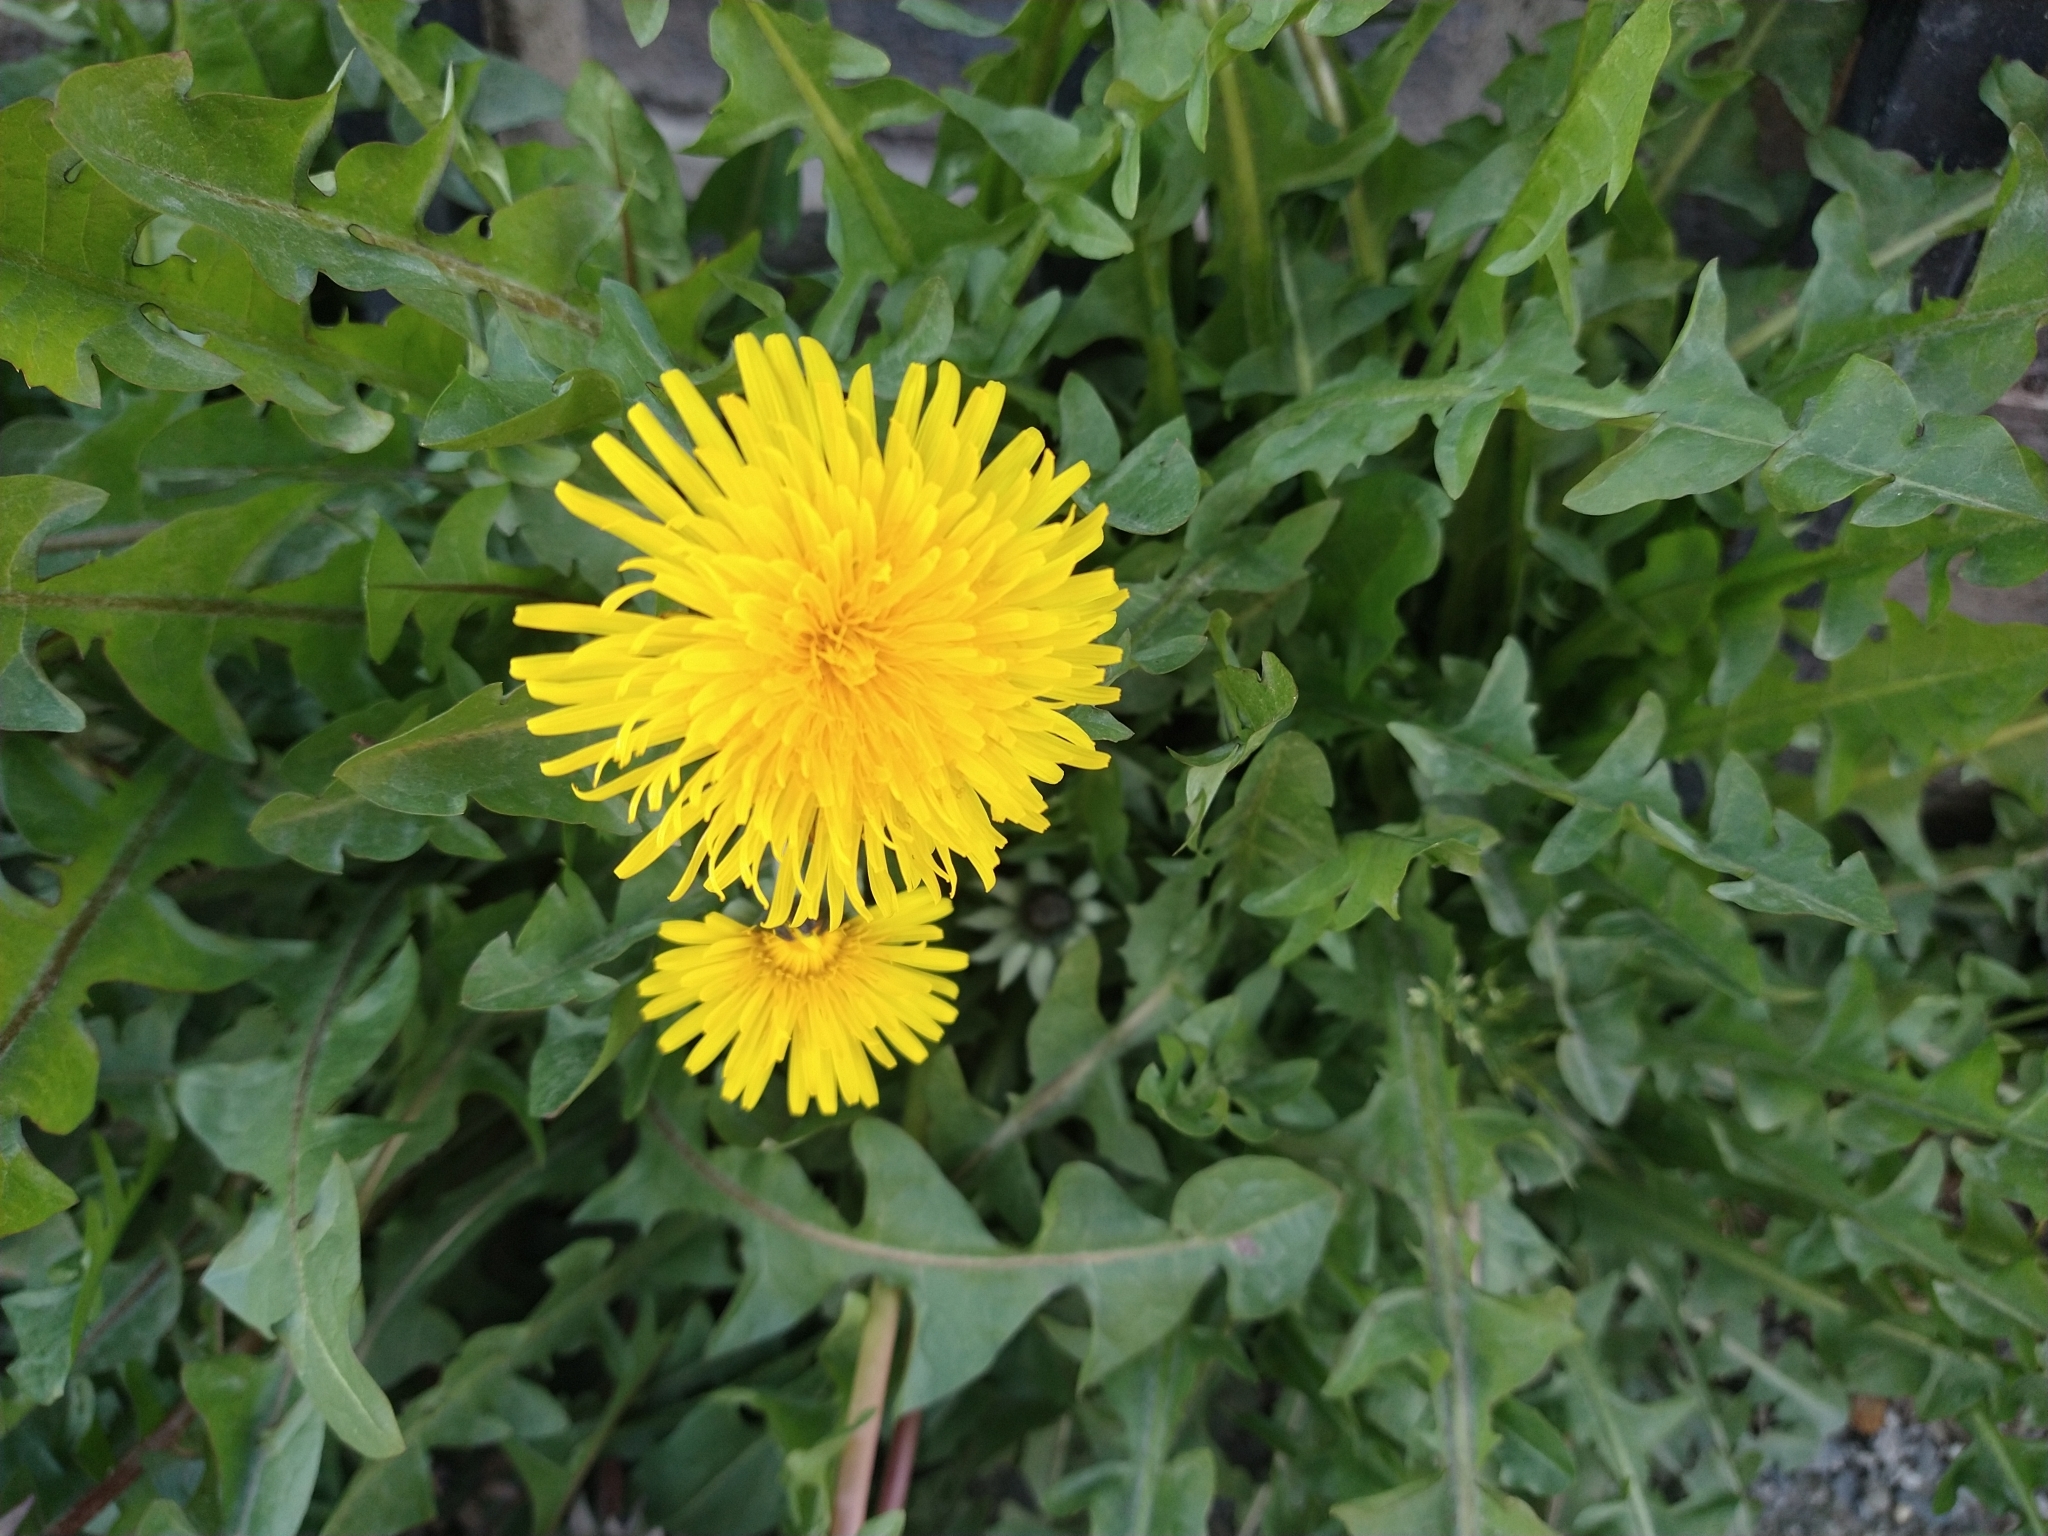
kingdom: Plantae
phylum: Tracheophyta
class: Magnoliopsida
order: Asterales
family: Asteraceae
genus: Taraxacum
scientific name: Taraxacum officinale
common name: Common dandelion
